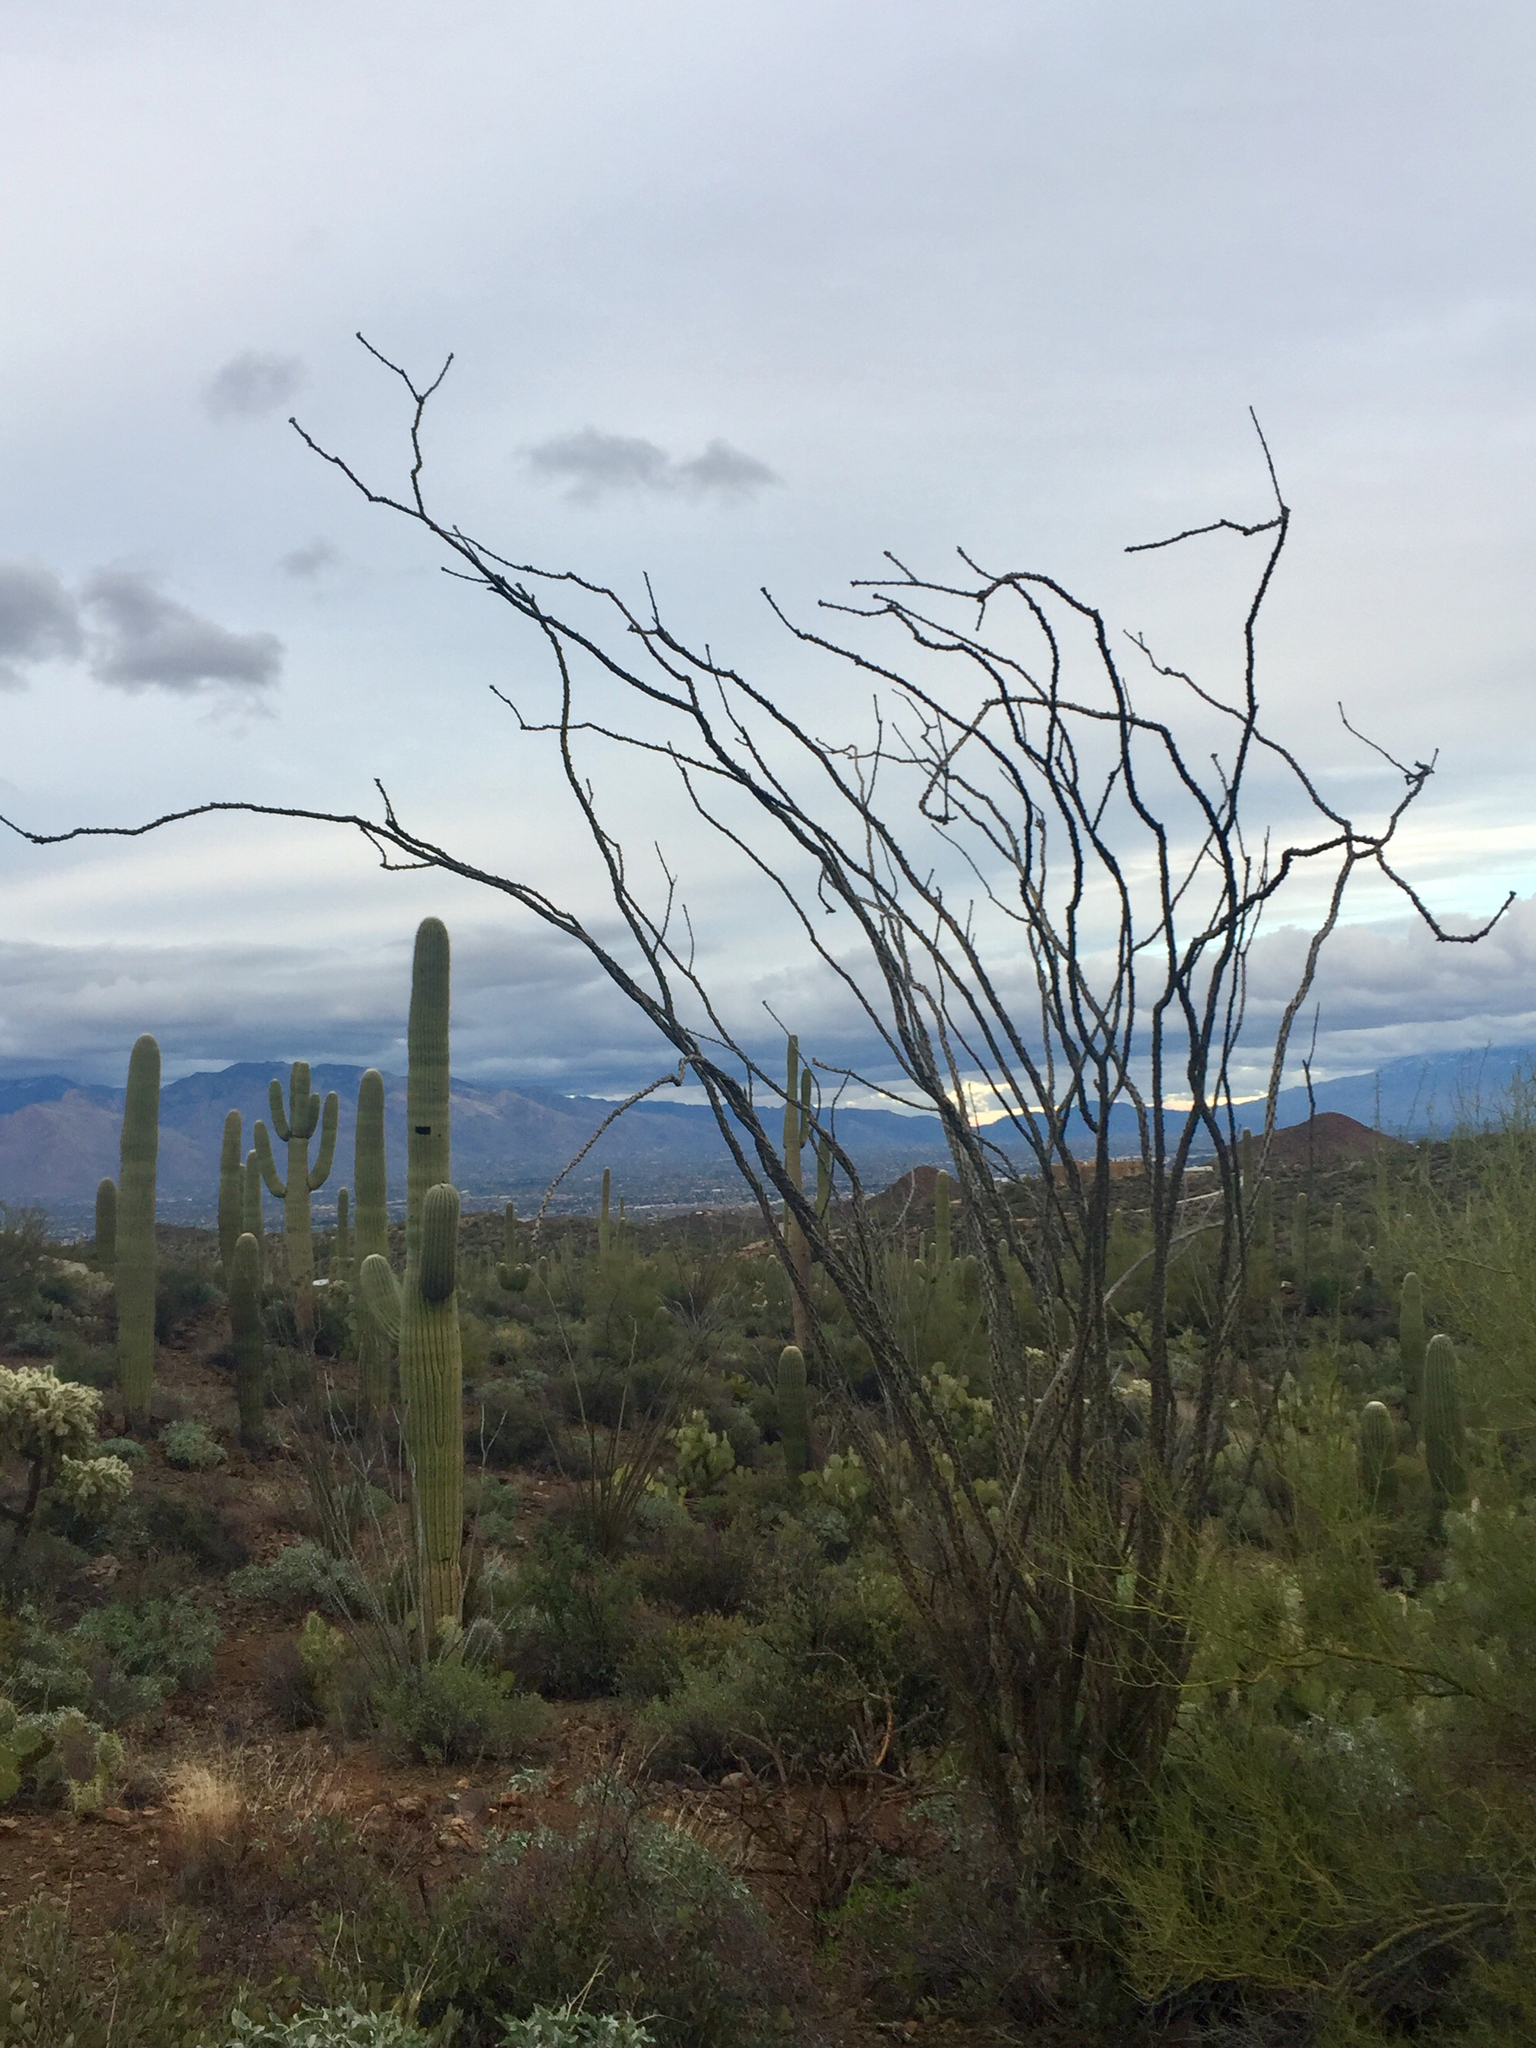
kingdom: Plantae
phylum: Tracheophyta
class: Magnoliopsida
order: Ericales
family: Fouquieriaceae
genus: Fouquieria
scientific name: Fouquieria splendens
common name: Vine-cactus
